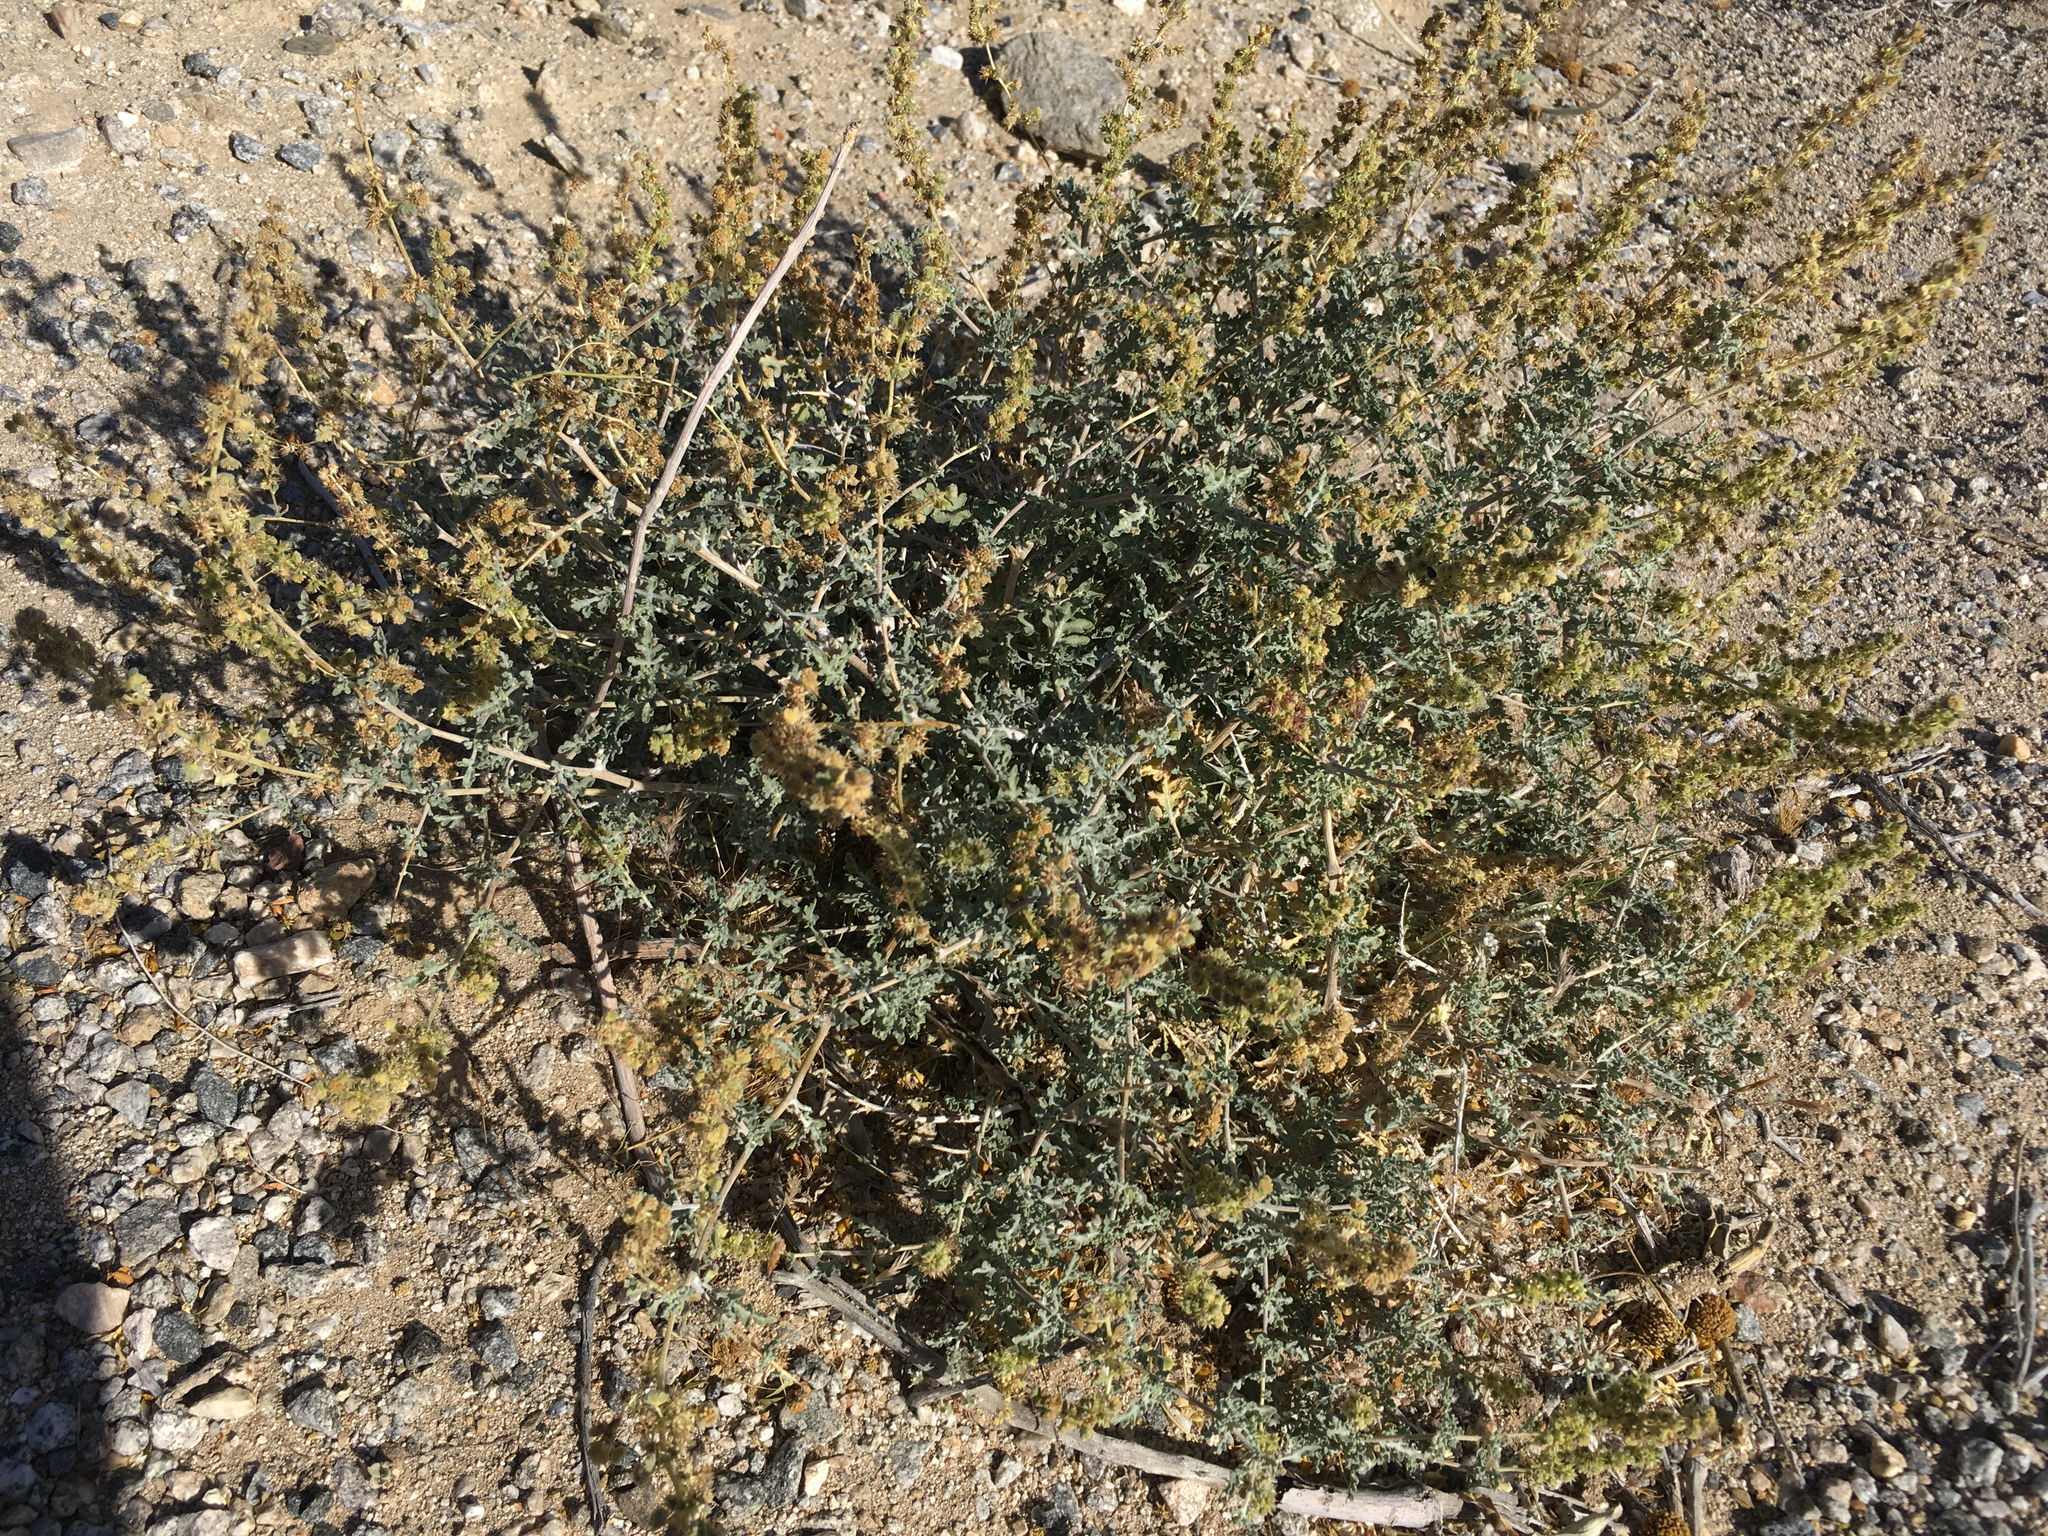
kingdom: Plantae
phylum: Tracheophyta
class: Magnoliopsida
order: Asterales
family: Asteraceae
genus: Ambrosia
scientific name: Ambrosia dumosa
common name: Bur-sage
